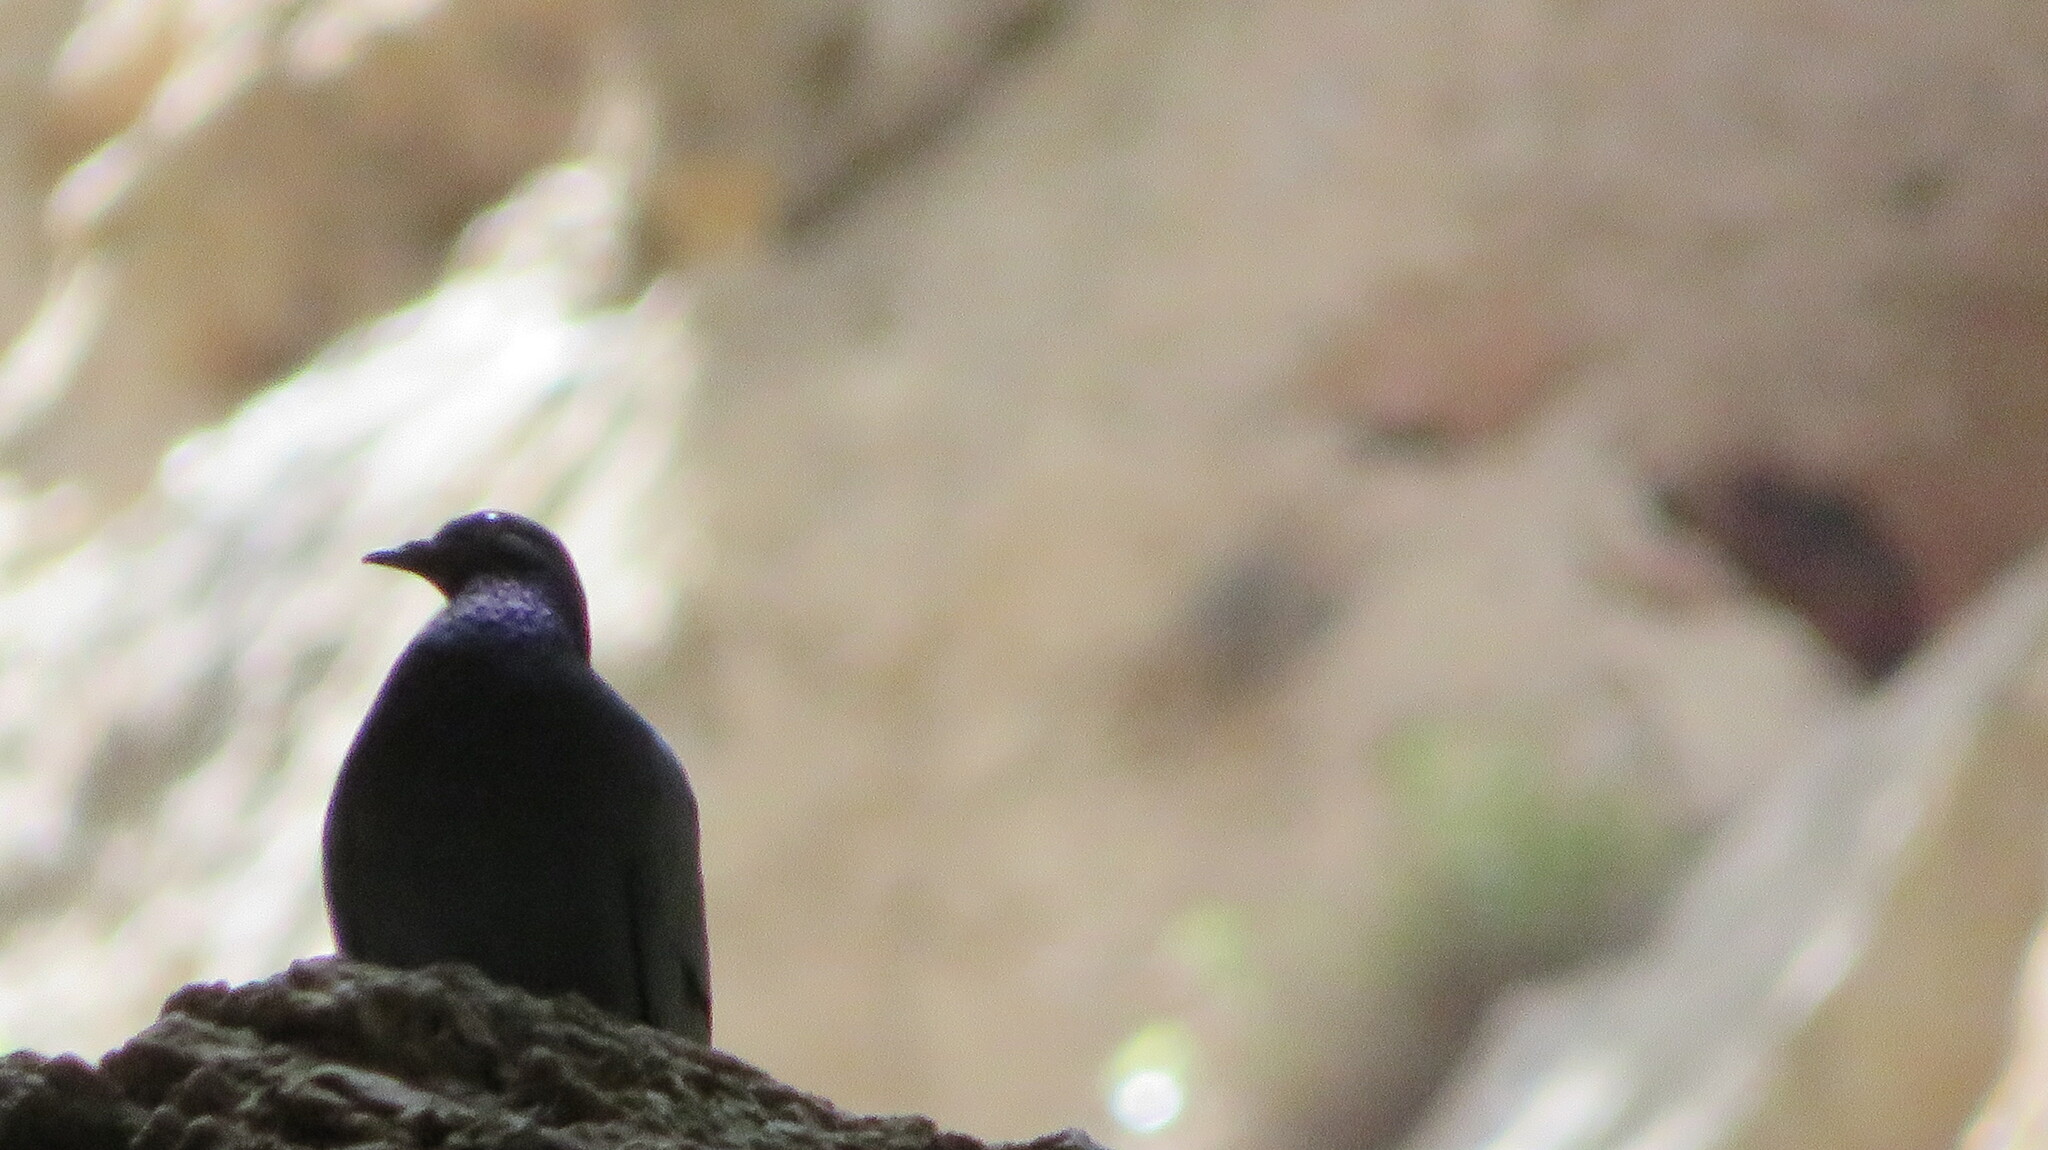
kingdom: Animalia
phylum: Chordata
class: Aves
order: Columbiformes
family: Columbidae
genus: Columba
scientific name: Columba livia
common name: Rock pigeon
